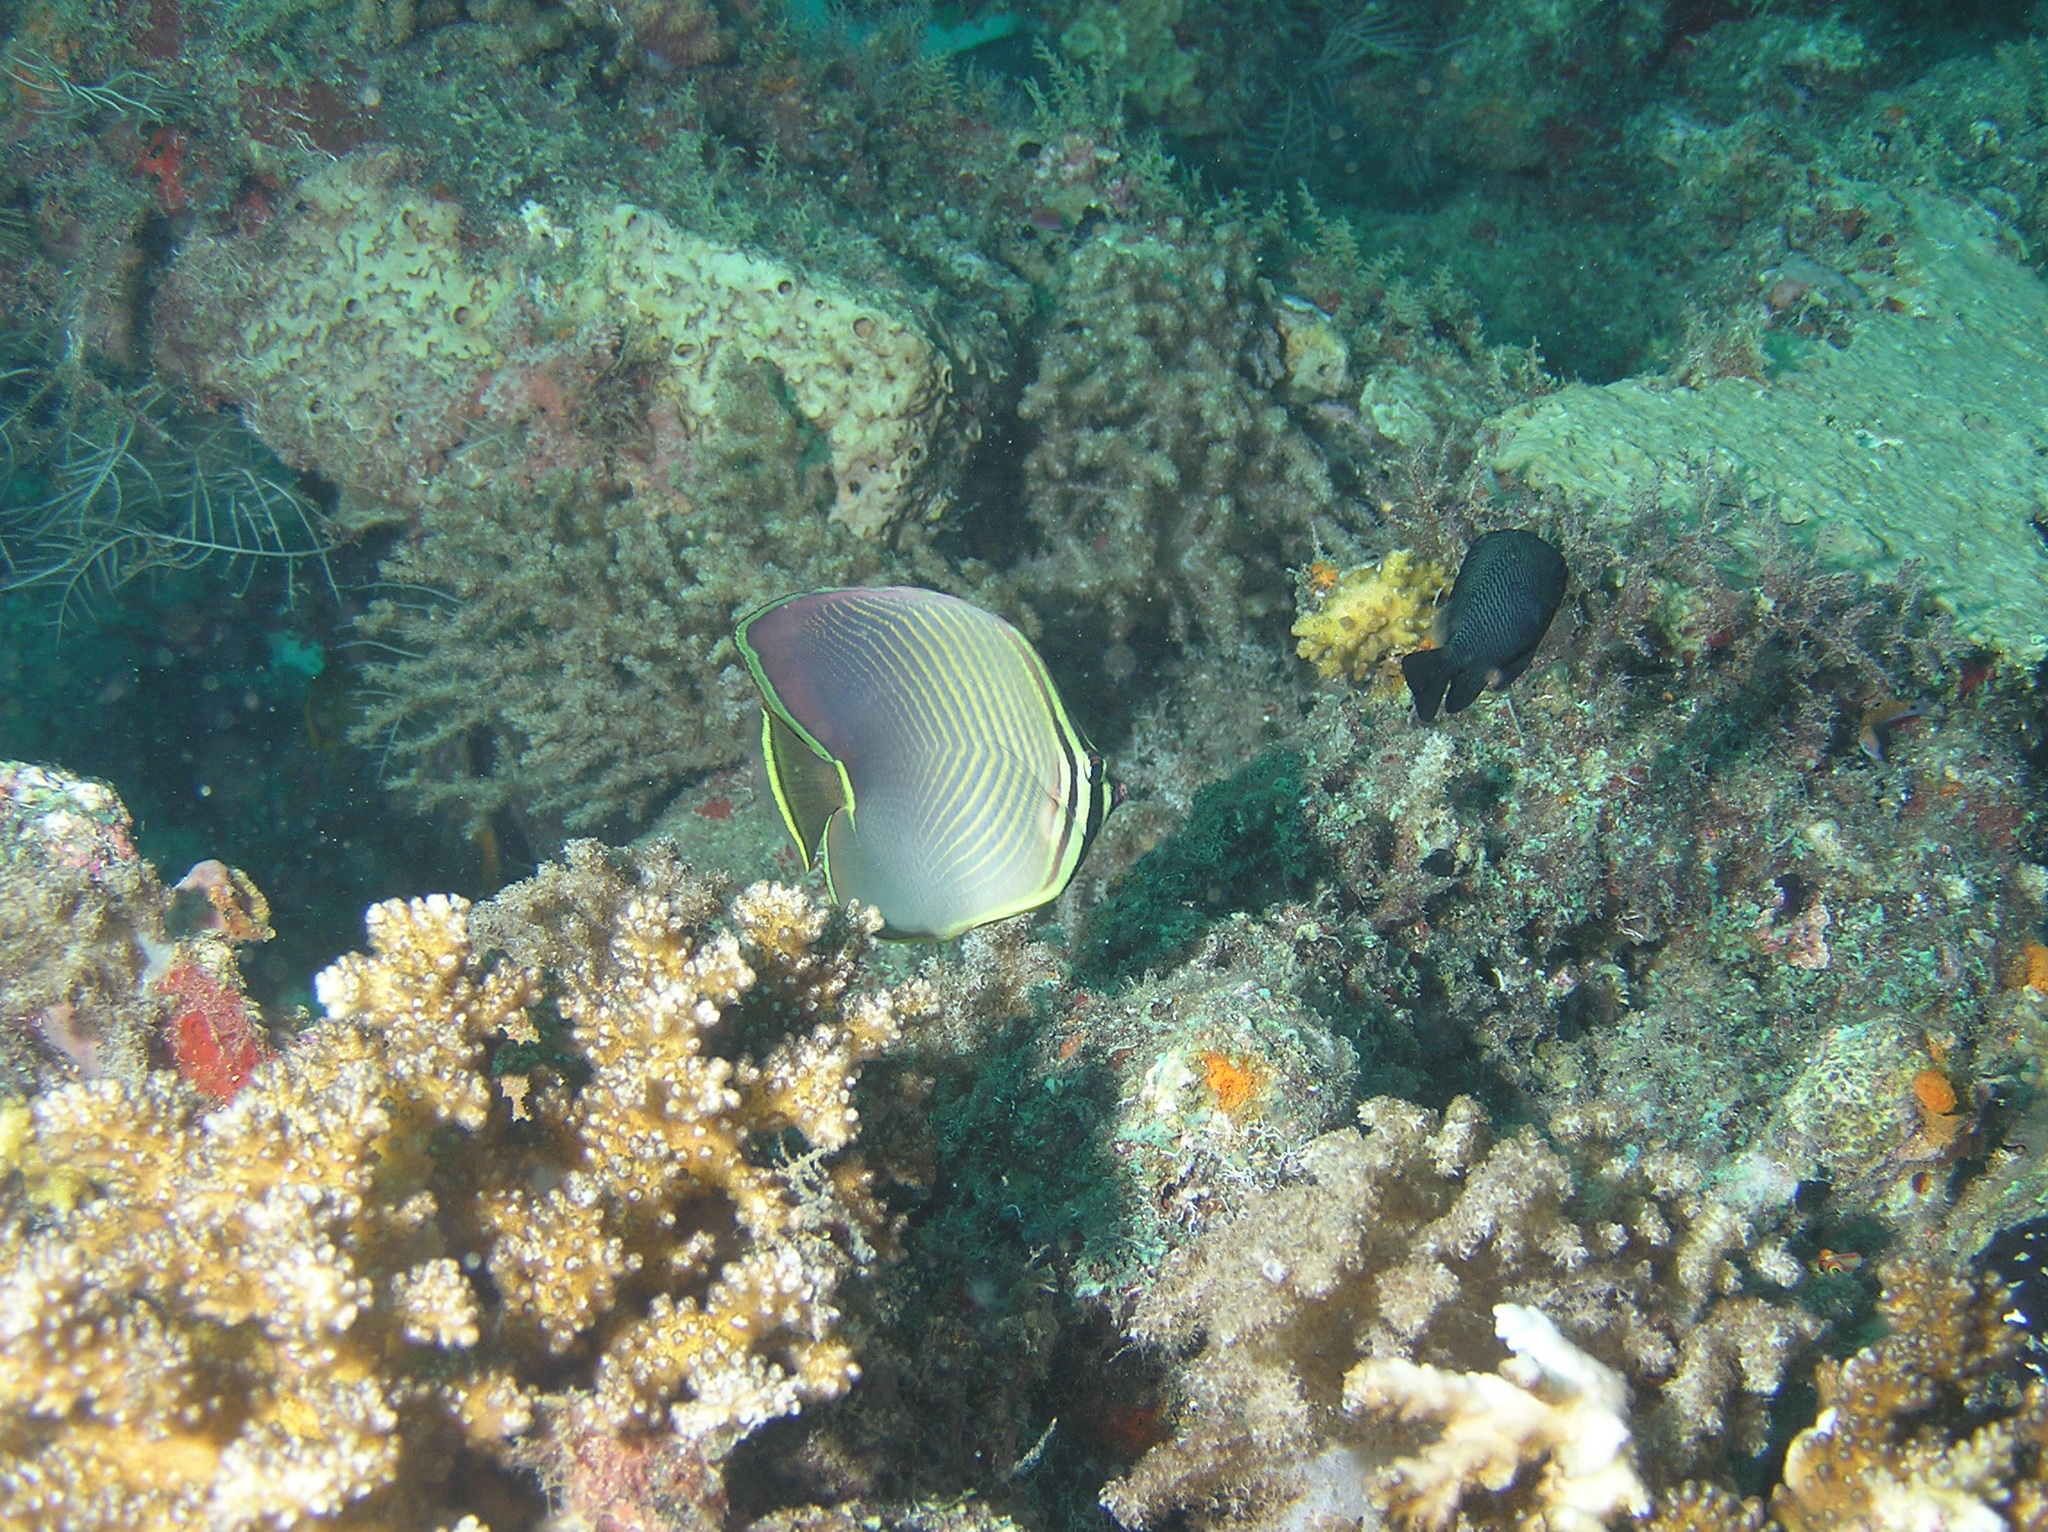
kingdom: Animalia
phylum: Chordata
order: Perciformes
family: Chaetodontidae
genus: Chaetodon
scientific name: Chaetodon baronessa
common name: Triangular butterflyfish
